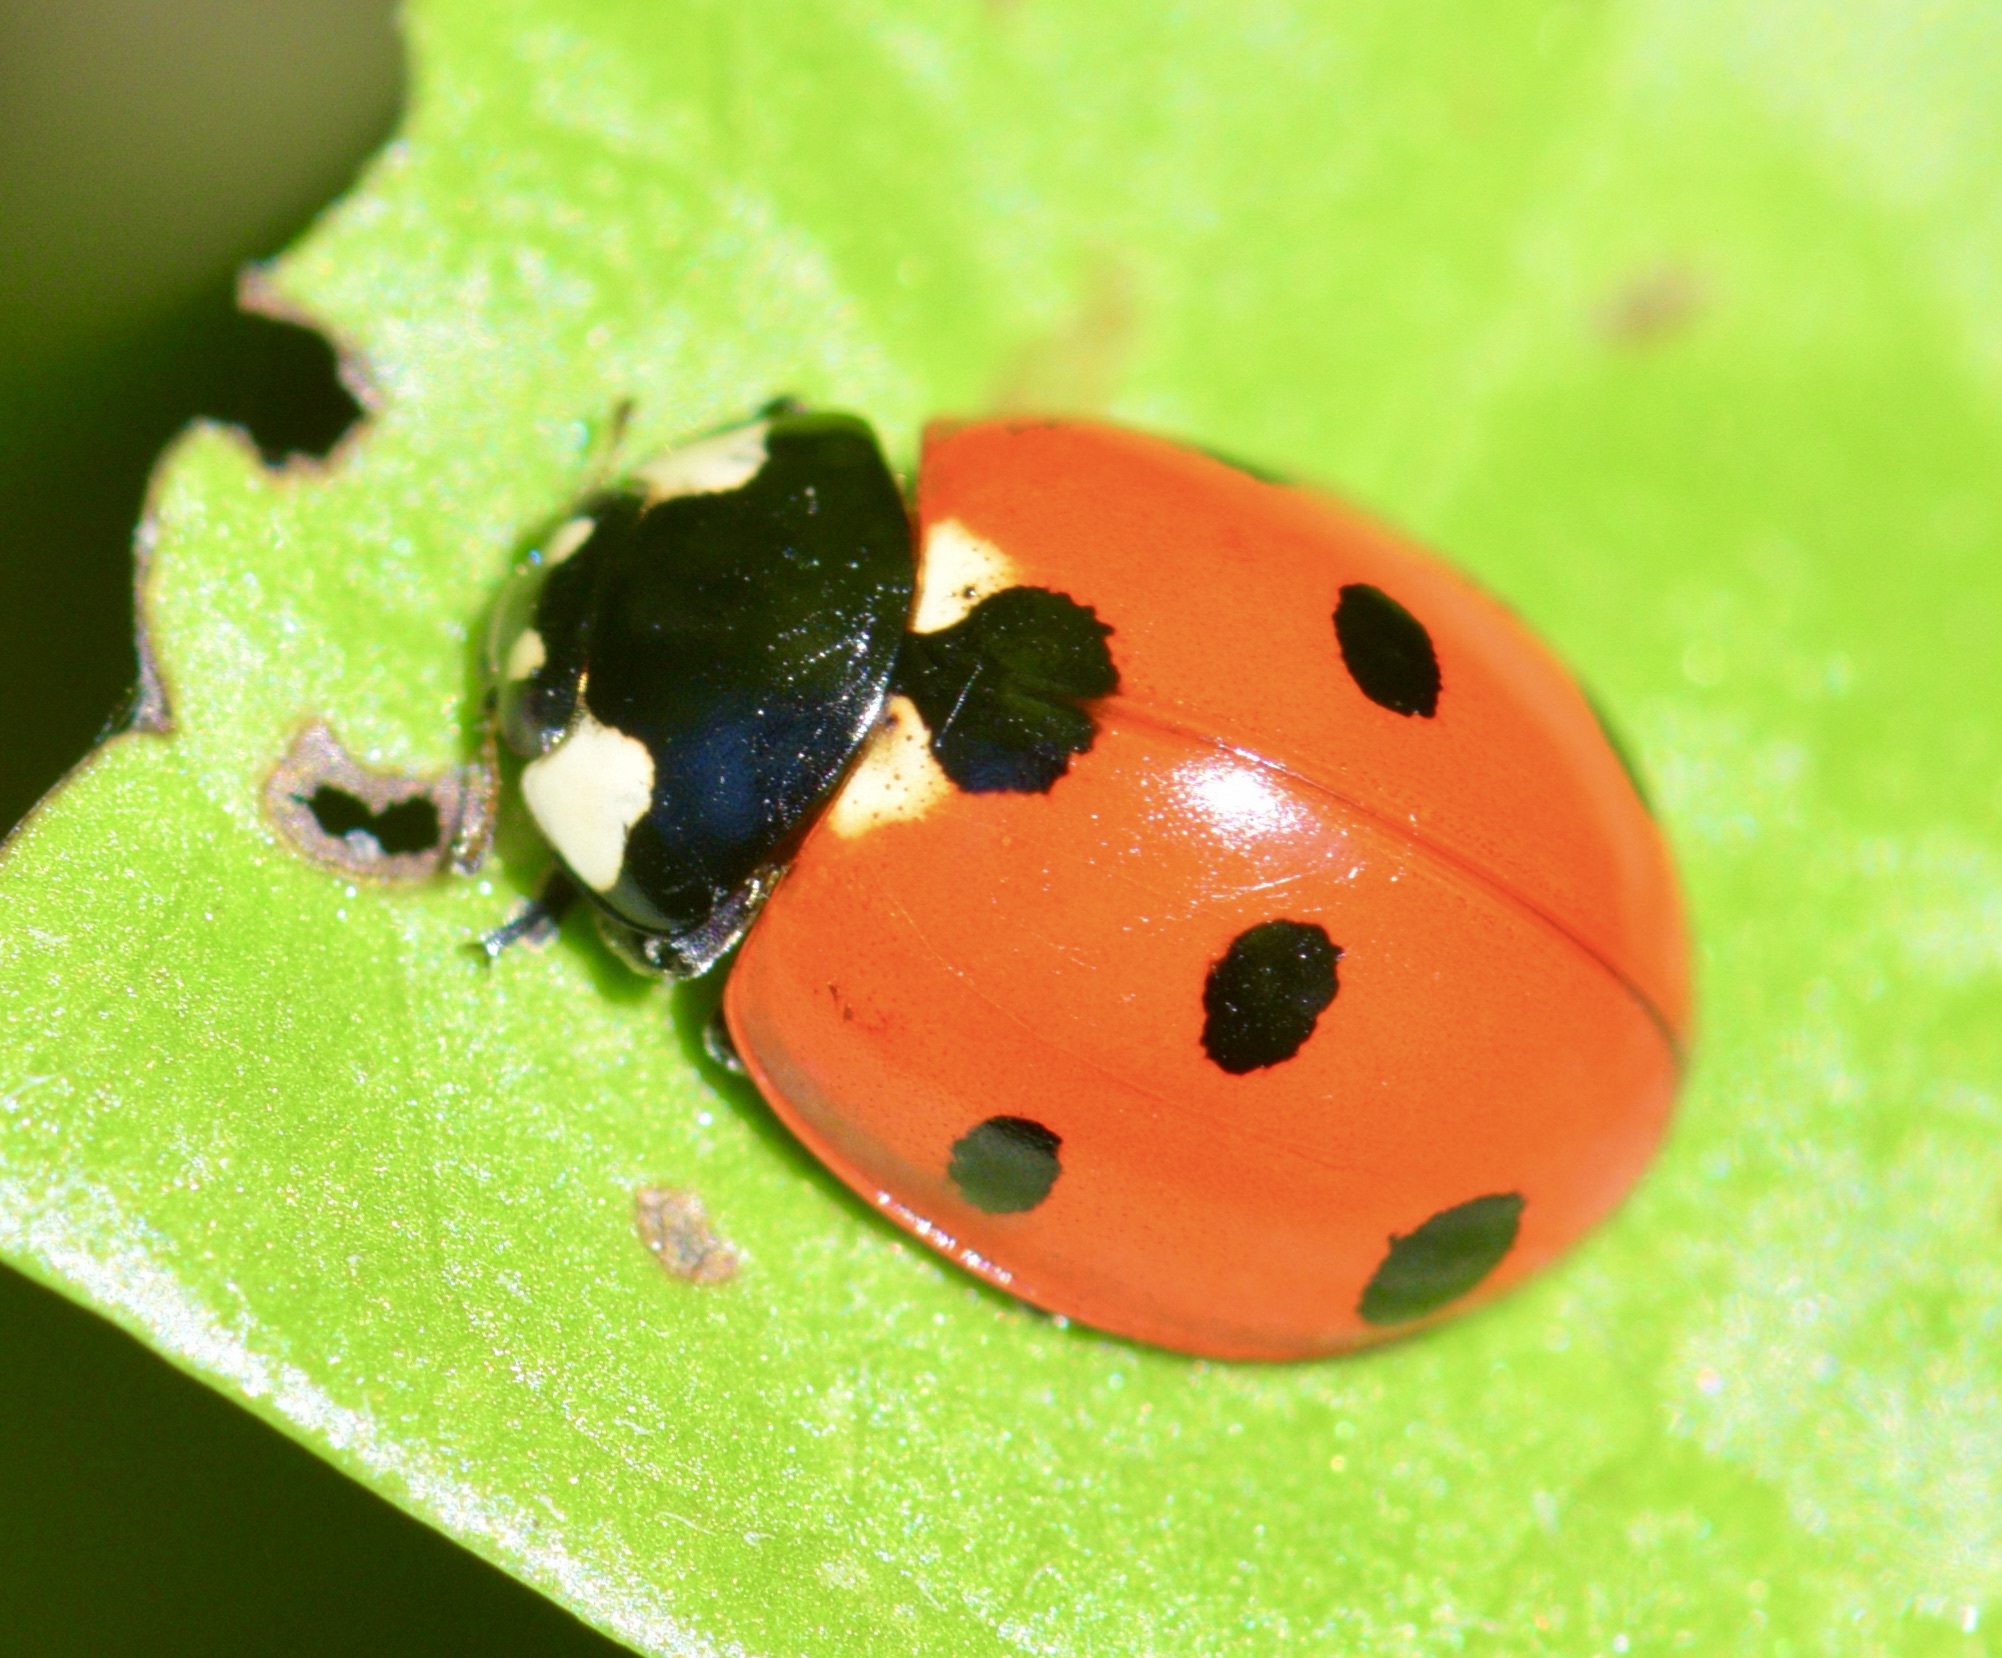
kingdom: Animalia
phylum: Arthropoda
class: Insecta
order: Coleoptera
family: Coccinellidae
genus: Coccinella
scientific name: Coccinella septempunctata
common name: Sevenspotted lady beetle
